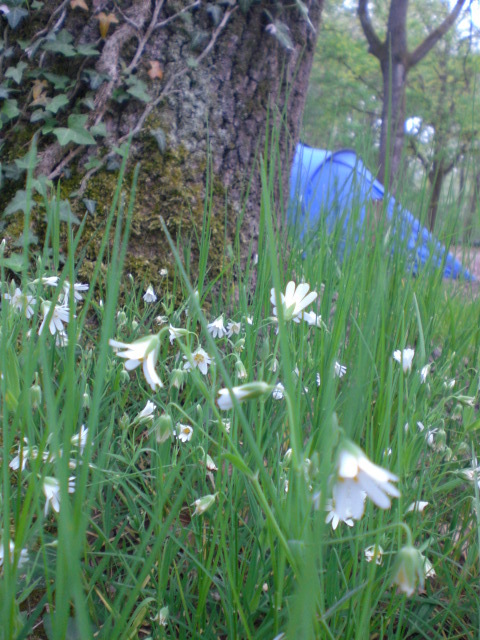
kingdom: Plantae
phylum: Tracheophyta
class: Magnoliopsida
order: Caryophyllales
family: Caryophyllaceae
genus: Rabelera
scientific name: Rabelera holostea
